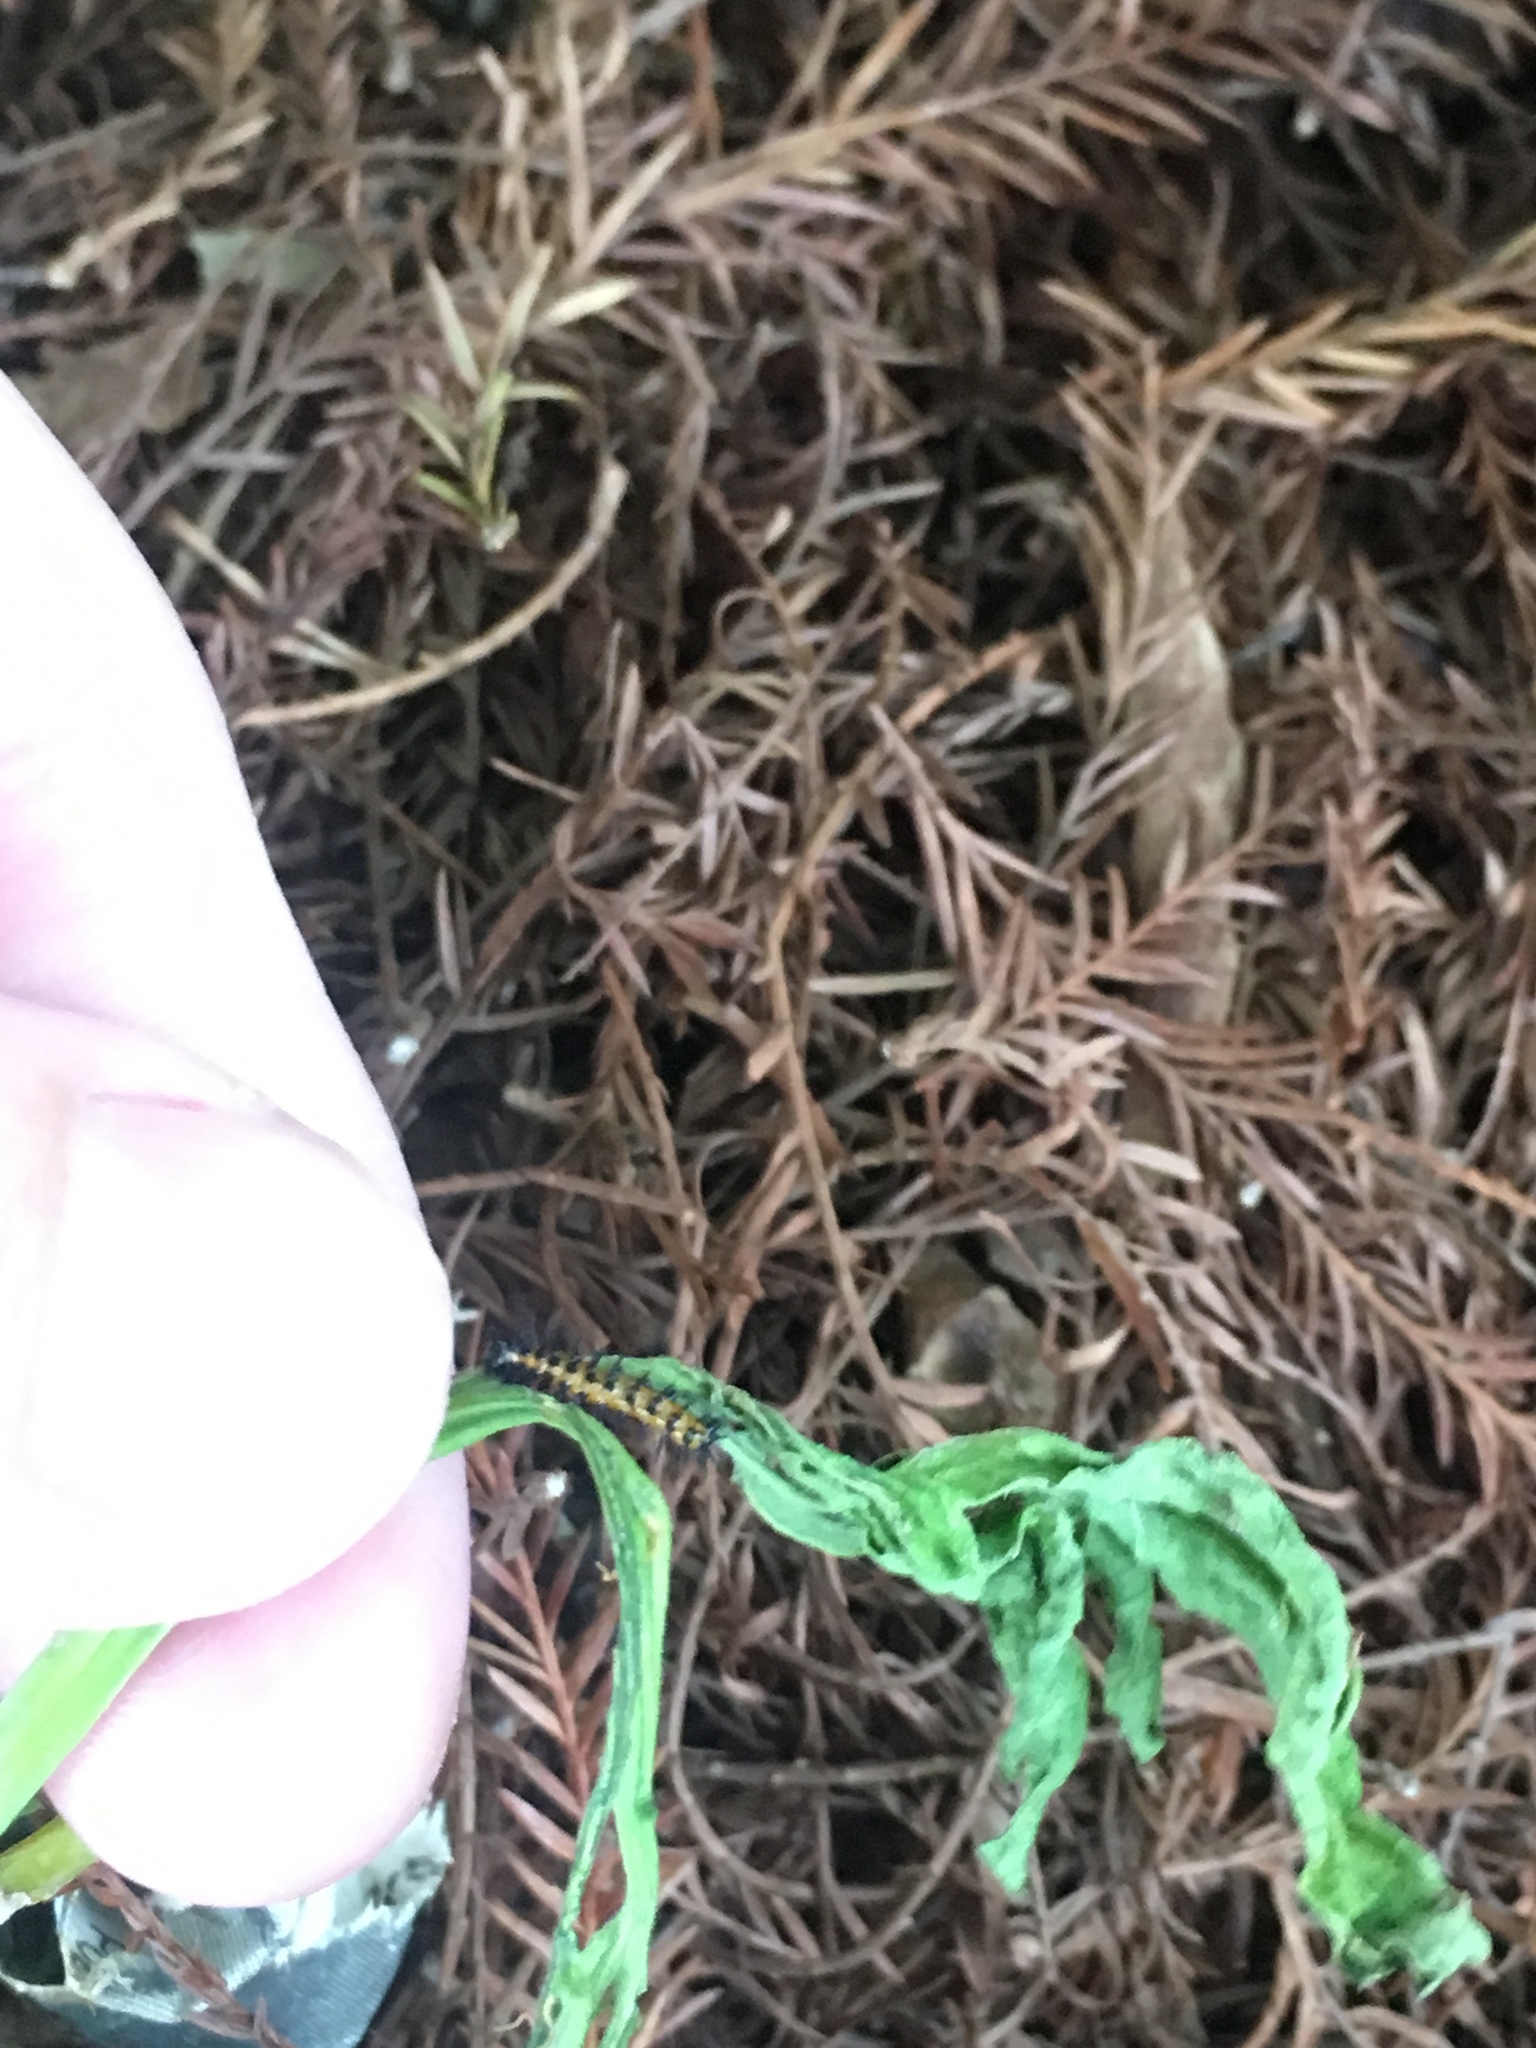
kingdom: Animalia
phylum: Arthropoda
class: Insecta
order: Lepidoptera
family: Nymphalidae
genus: Dione
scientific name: Dione vanillae
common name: Gulf fritillary
